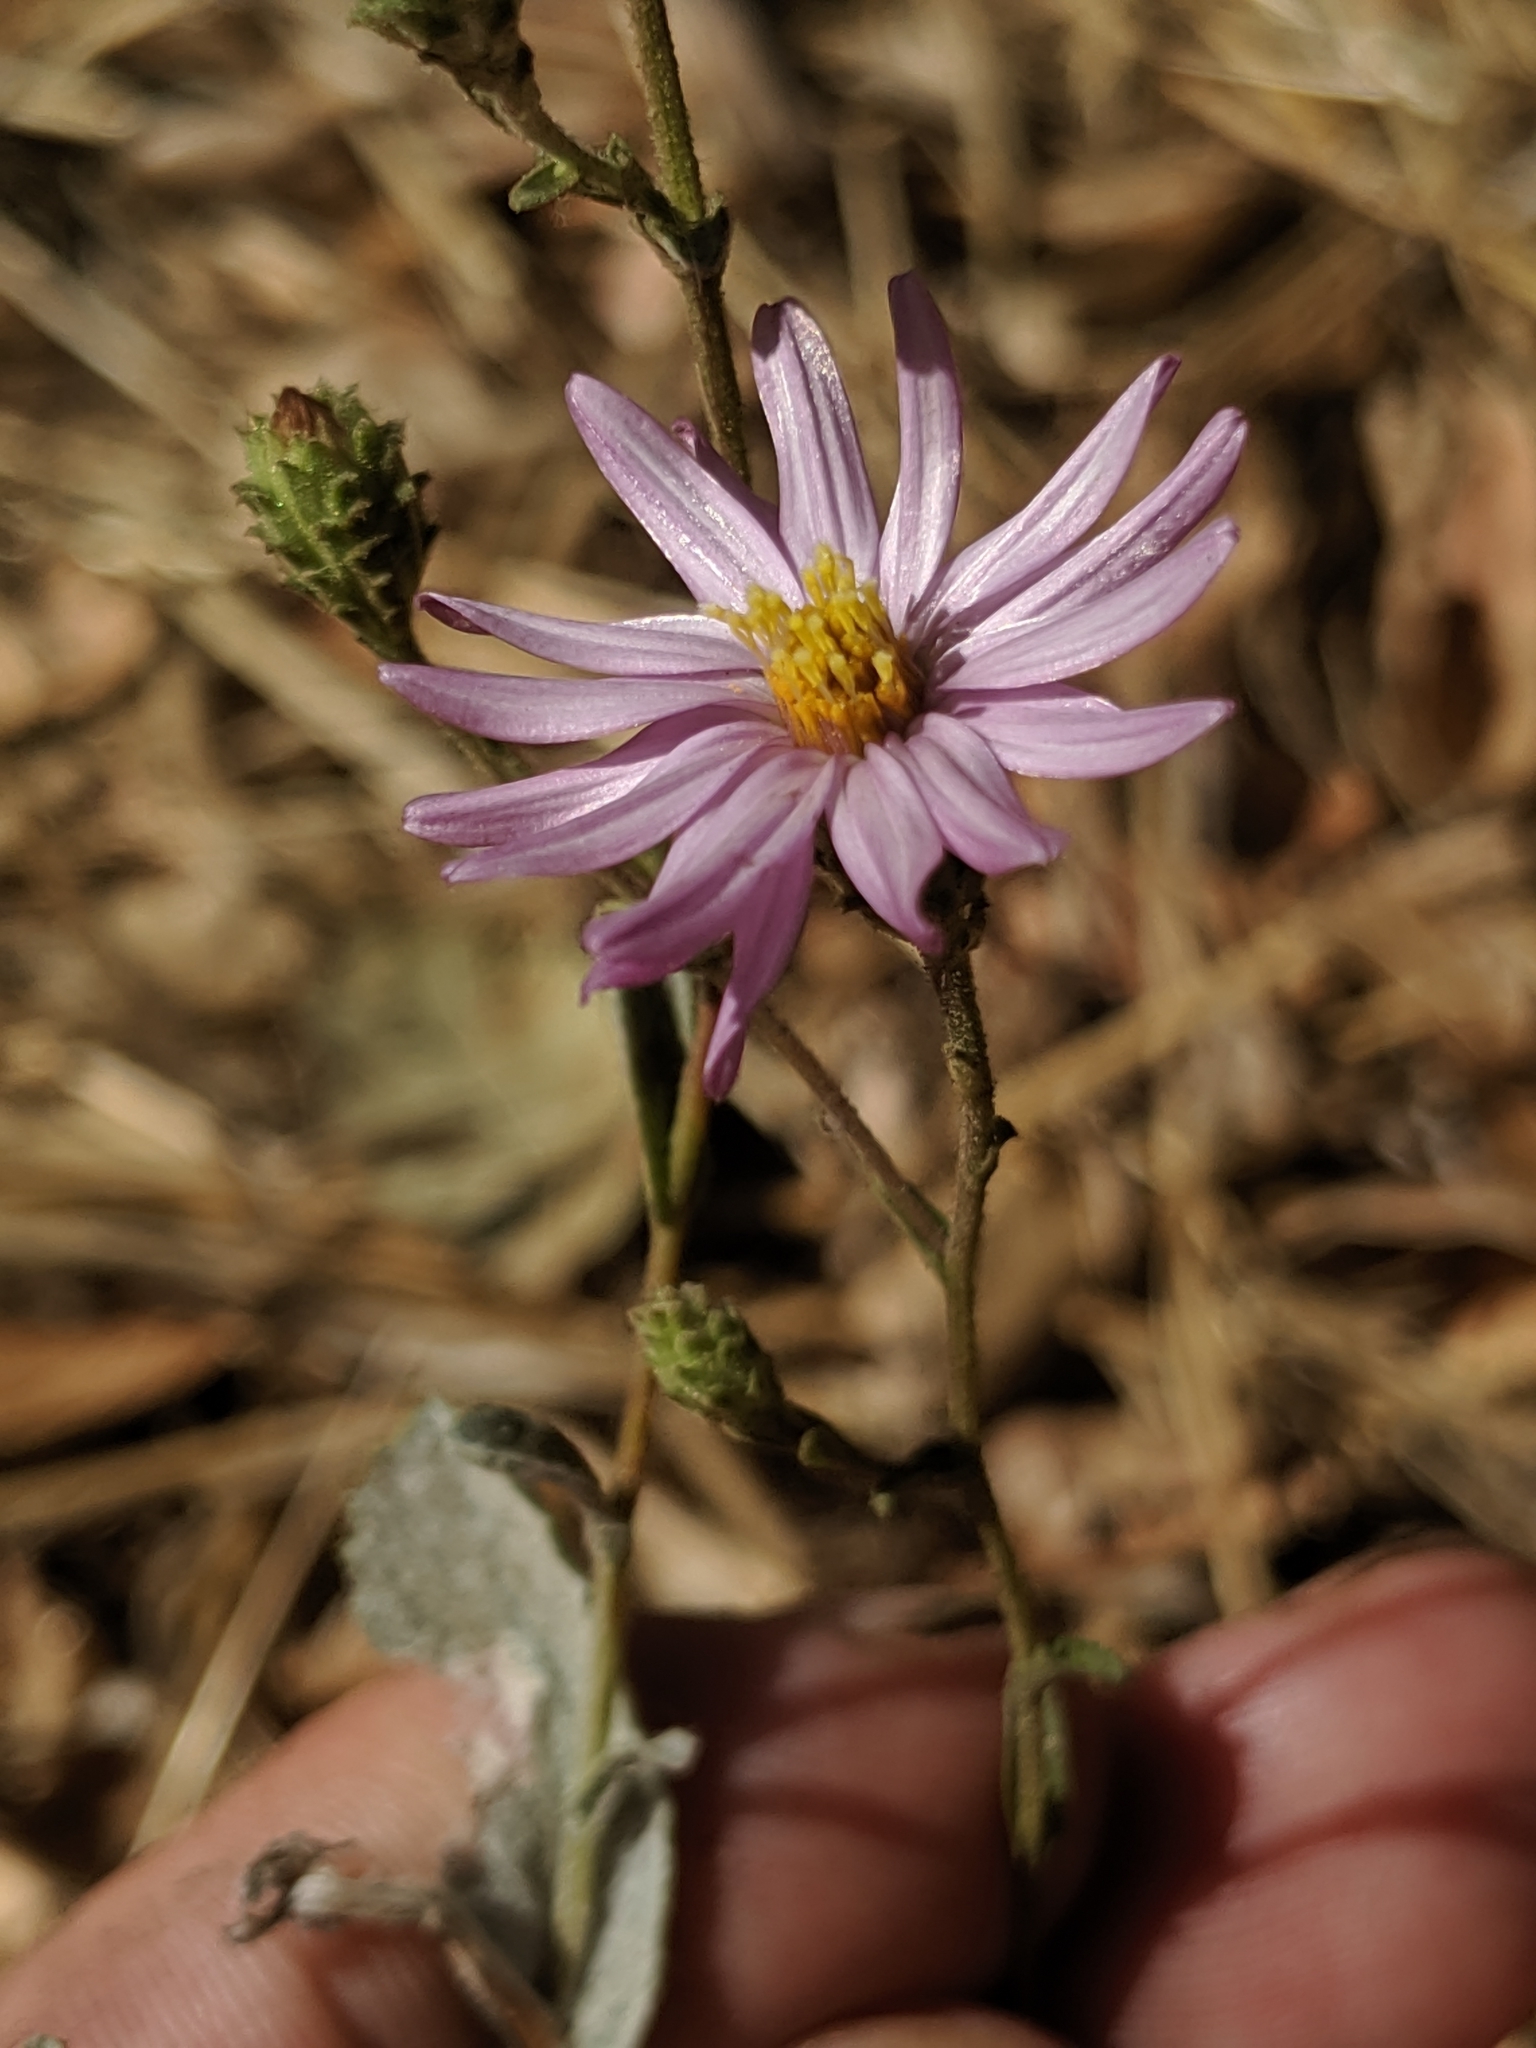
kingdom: Plantae
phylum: Tracheophyta
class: Magnoliopsida
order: Asterales
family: Asteraceae
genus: Corethrogyne
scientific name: Corethrogyne filaginifolia
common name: Sand-aster
